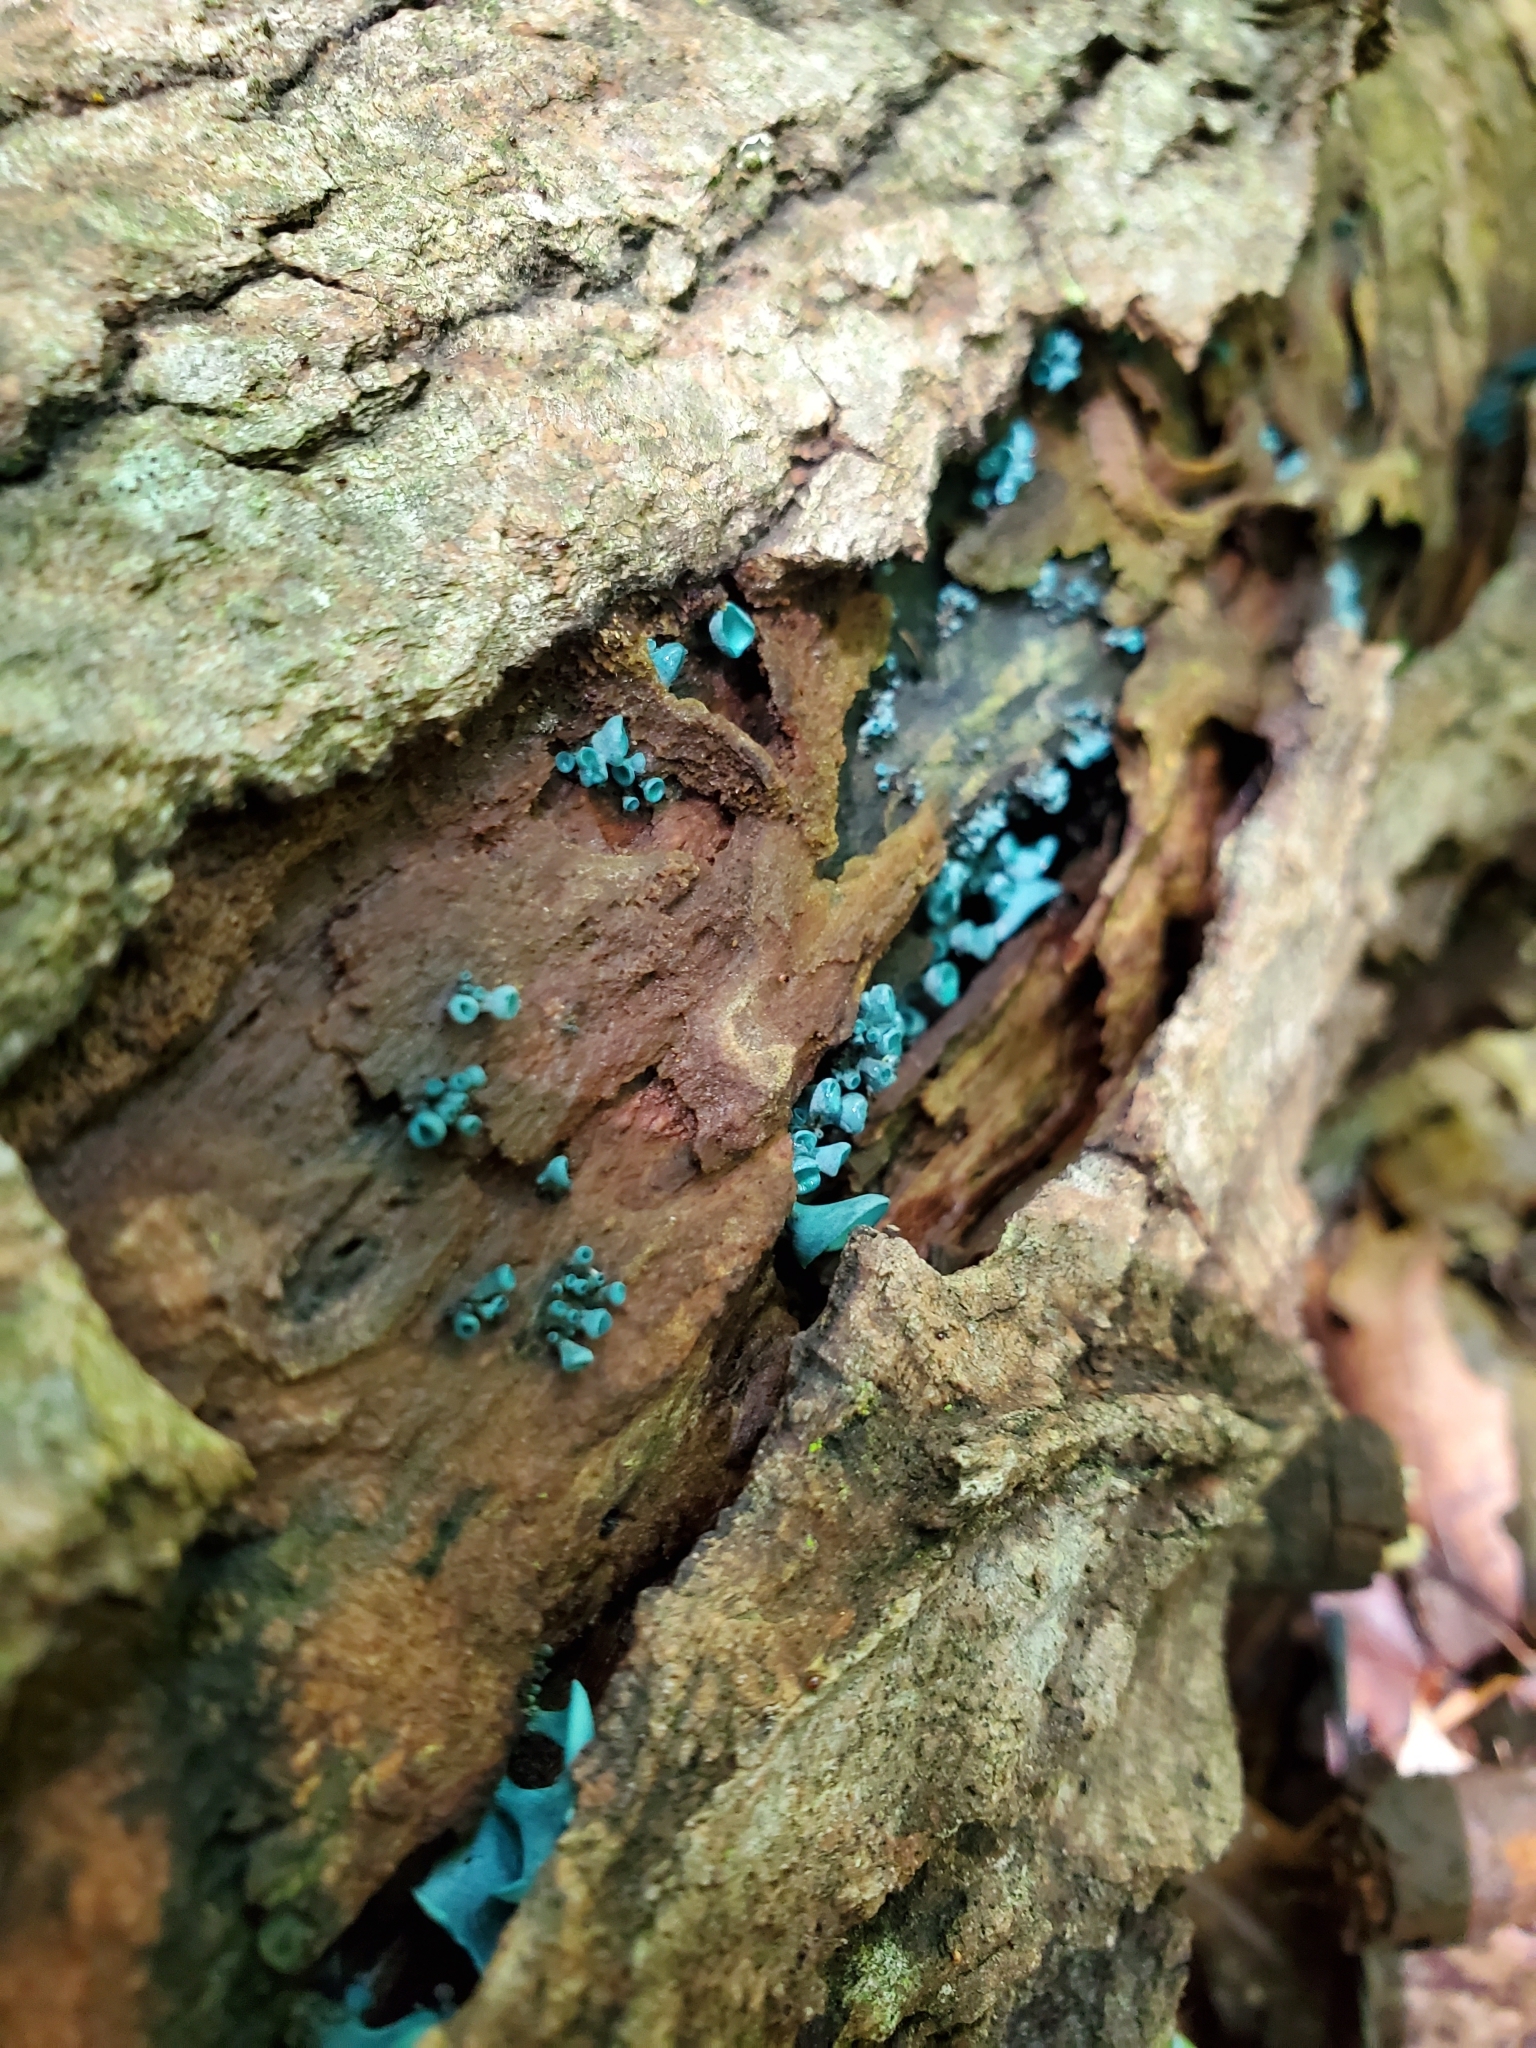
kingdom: Fungi
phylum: Ascomycota
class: Leotiomycetes
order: Helotiales
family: Chlorociboriaceae
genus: Chlorociboria
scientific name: Chlorociboria
